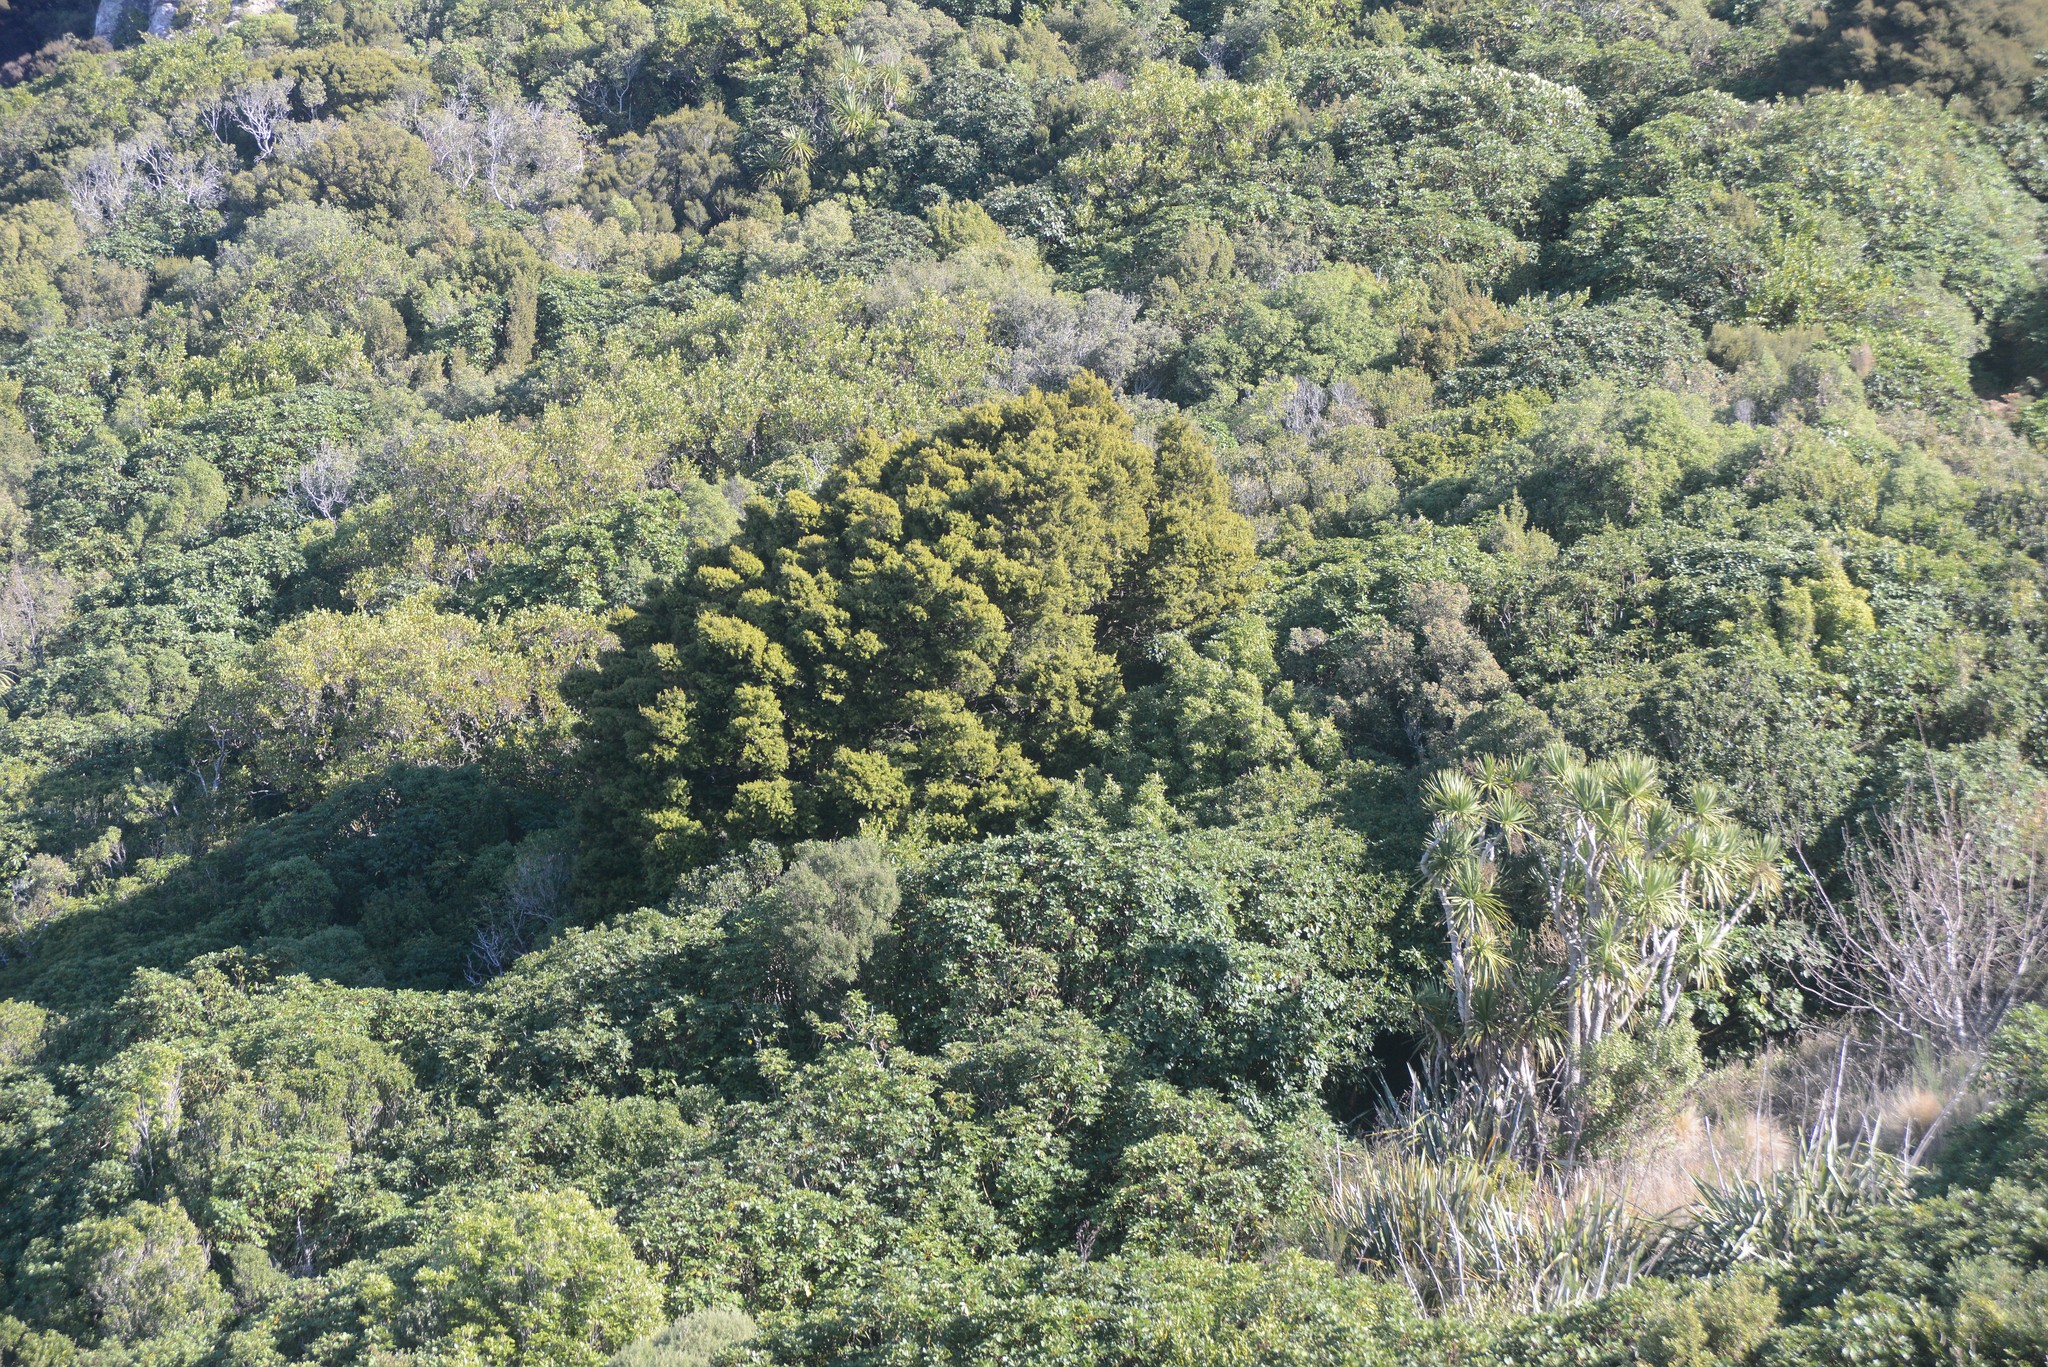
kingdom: Plantae
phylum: Tracheophyta
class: Pinopsida
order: Pinales
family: Podocarpaceae
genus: Podocarpus
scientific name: Podocarpus totara
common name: Totara
